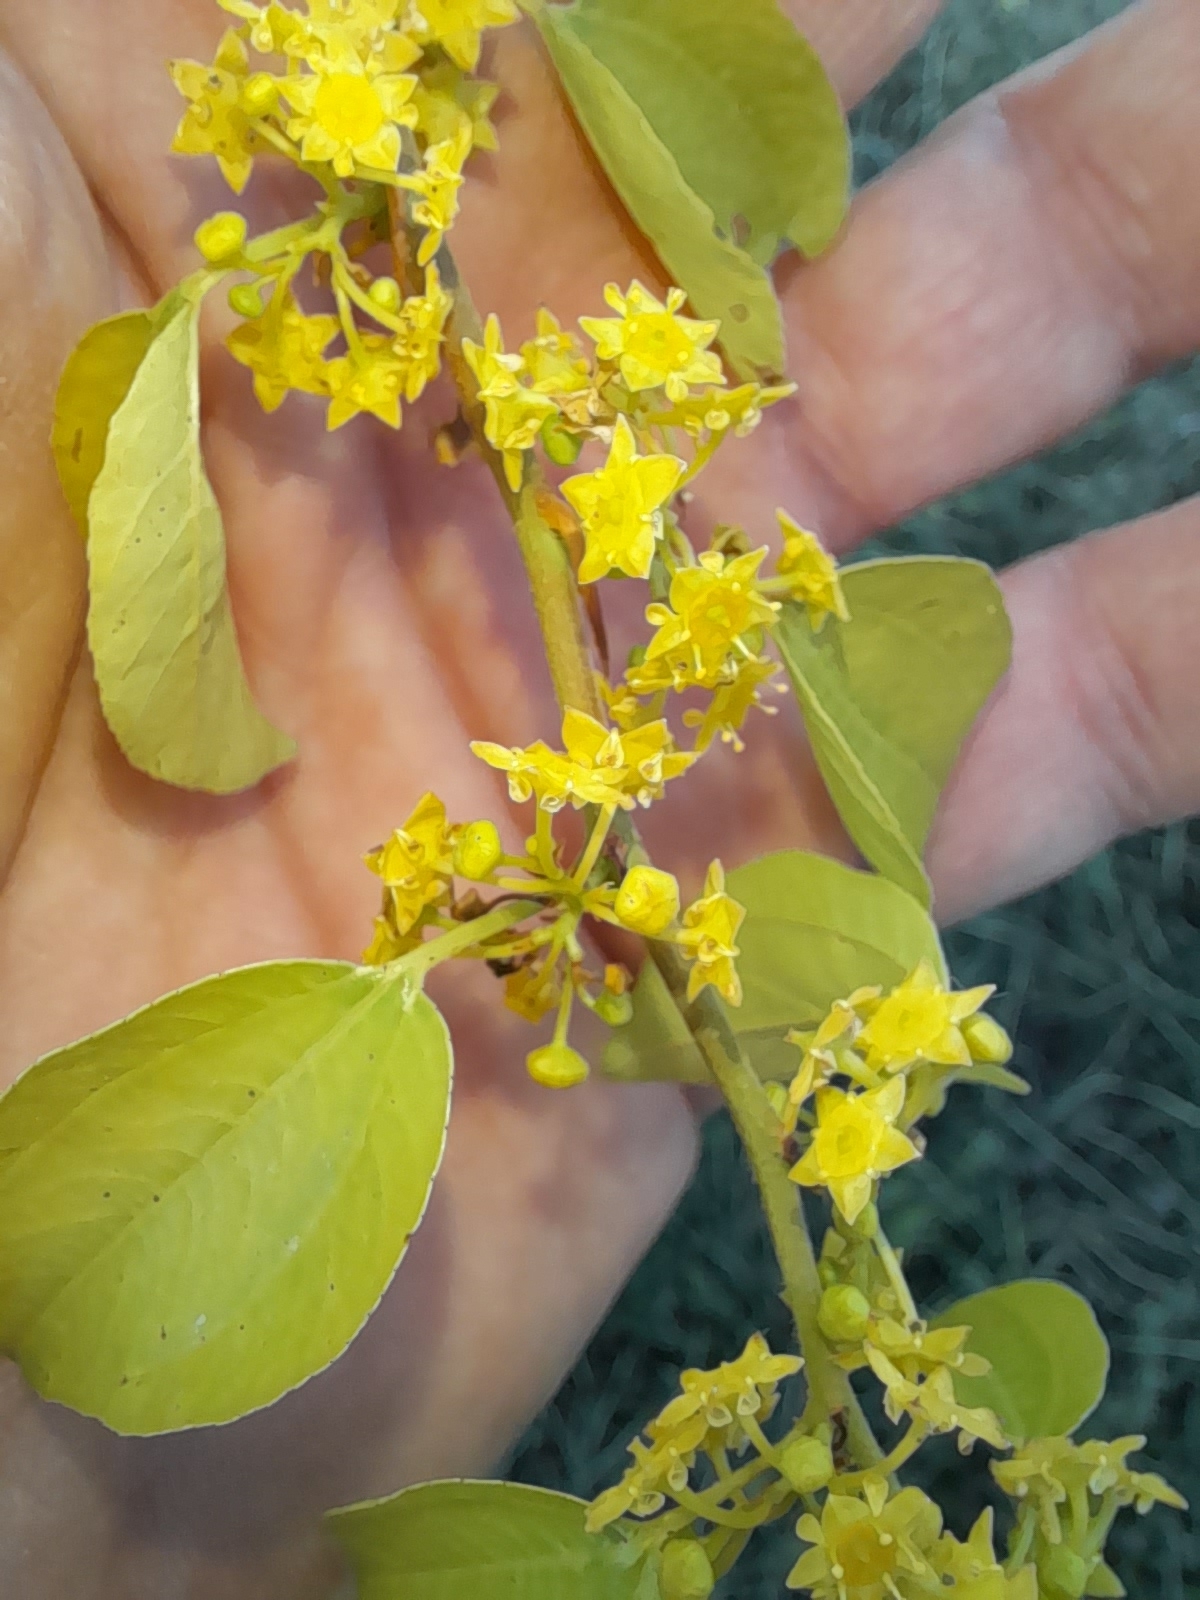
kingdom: Plantae
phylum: Tracheophyta
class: Magnoliopsida
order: Rosales
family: Rhamnaceae
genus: Paliurus
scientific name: Paliurus spina-christi
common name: Jeruselem thorn
